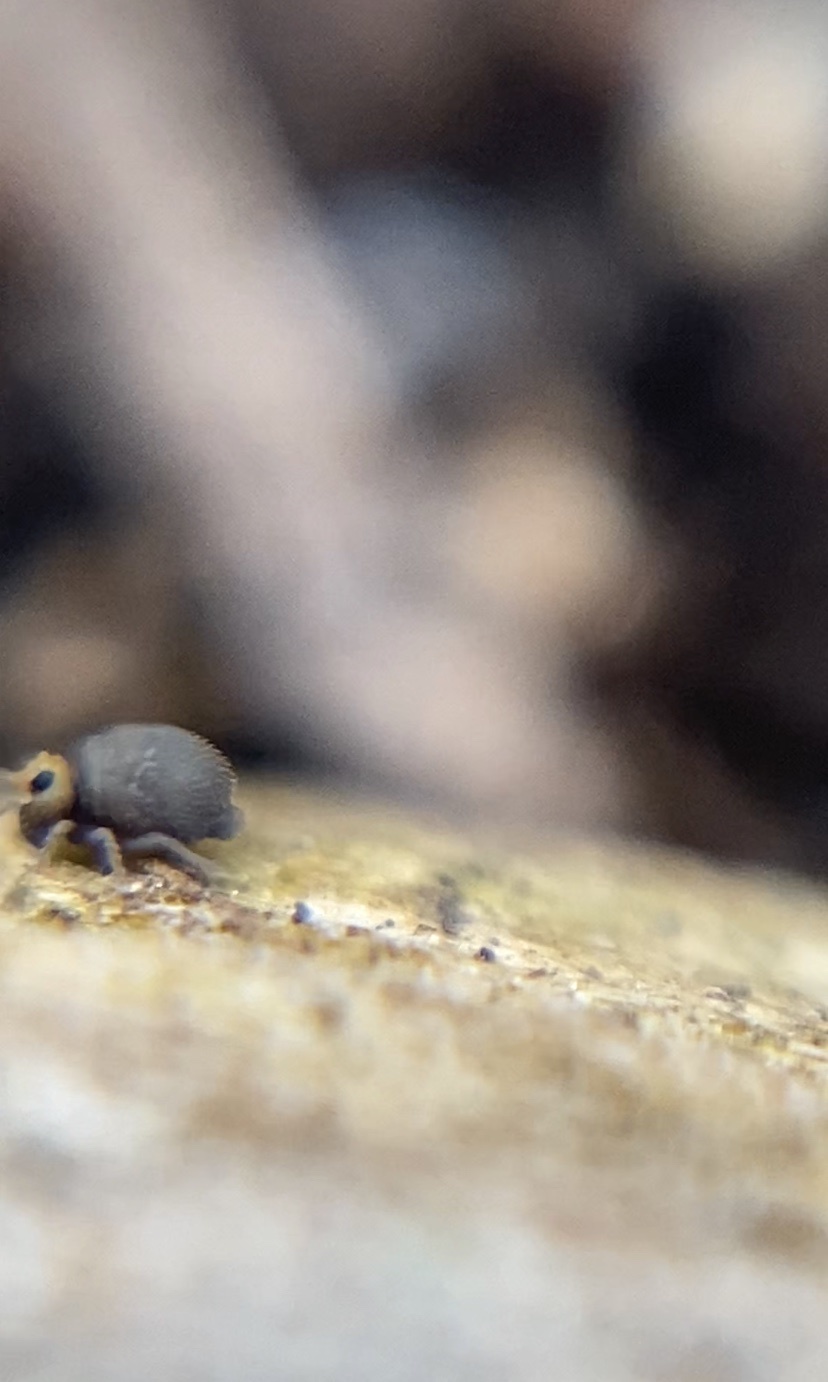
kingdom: Animalia
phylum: Arthropoda
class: Collembola
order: Symphypleona
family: Bourletiellidae
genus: Bourletiella
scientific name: Bourletiella hortensis
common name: Garden springtail
